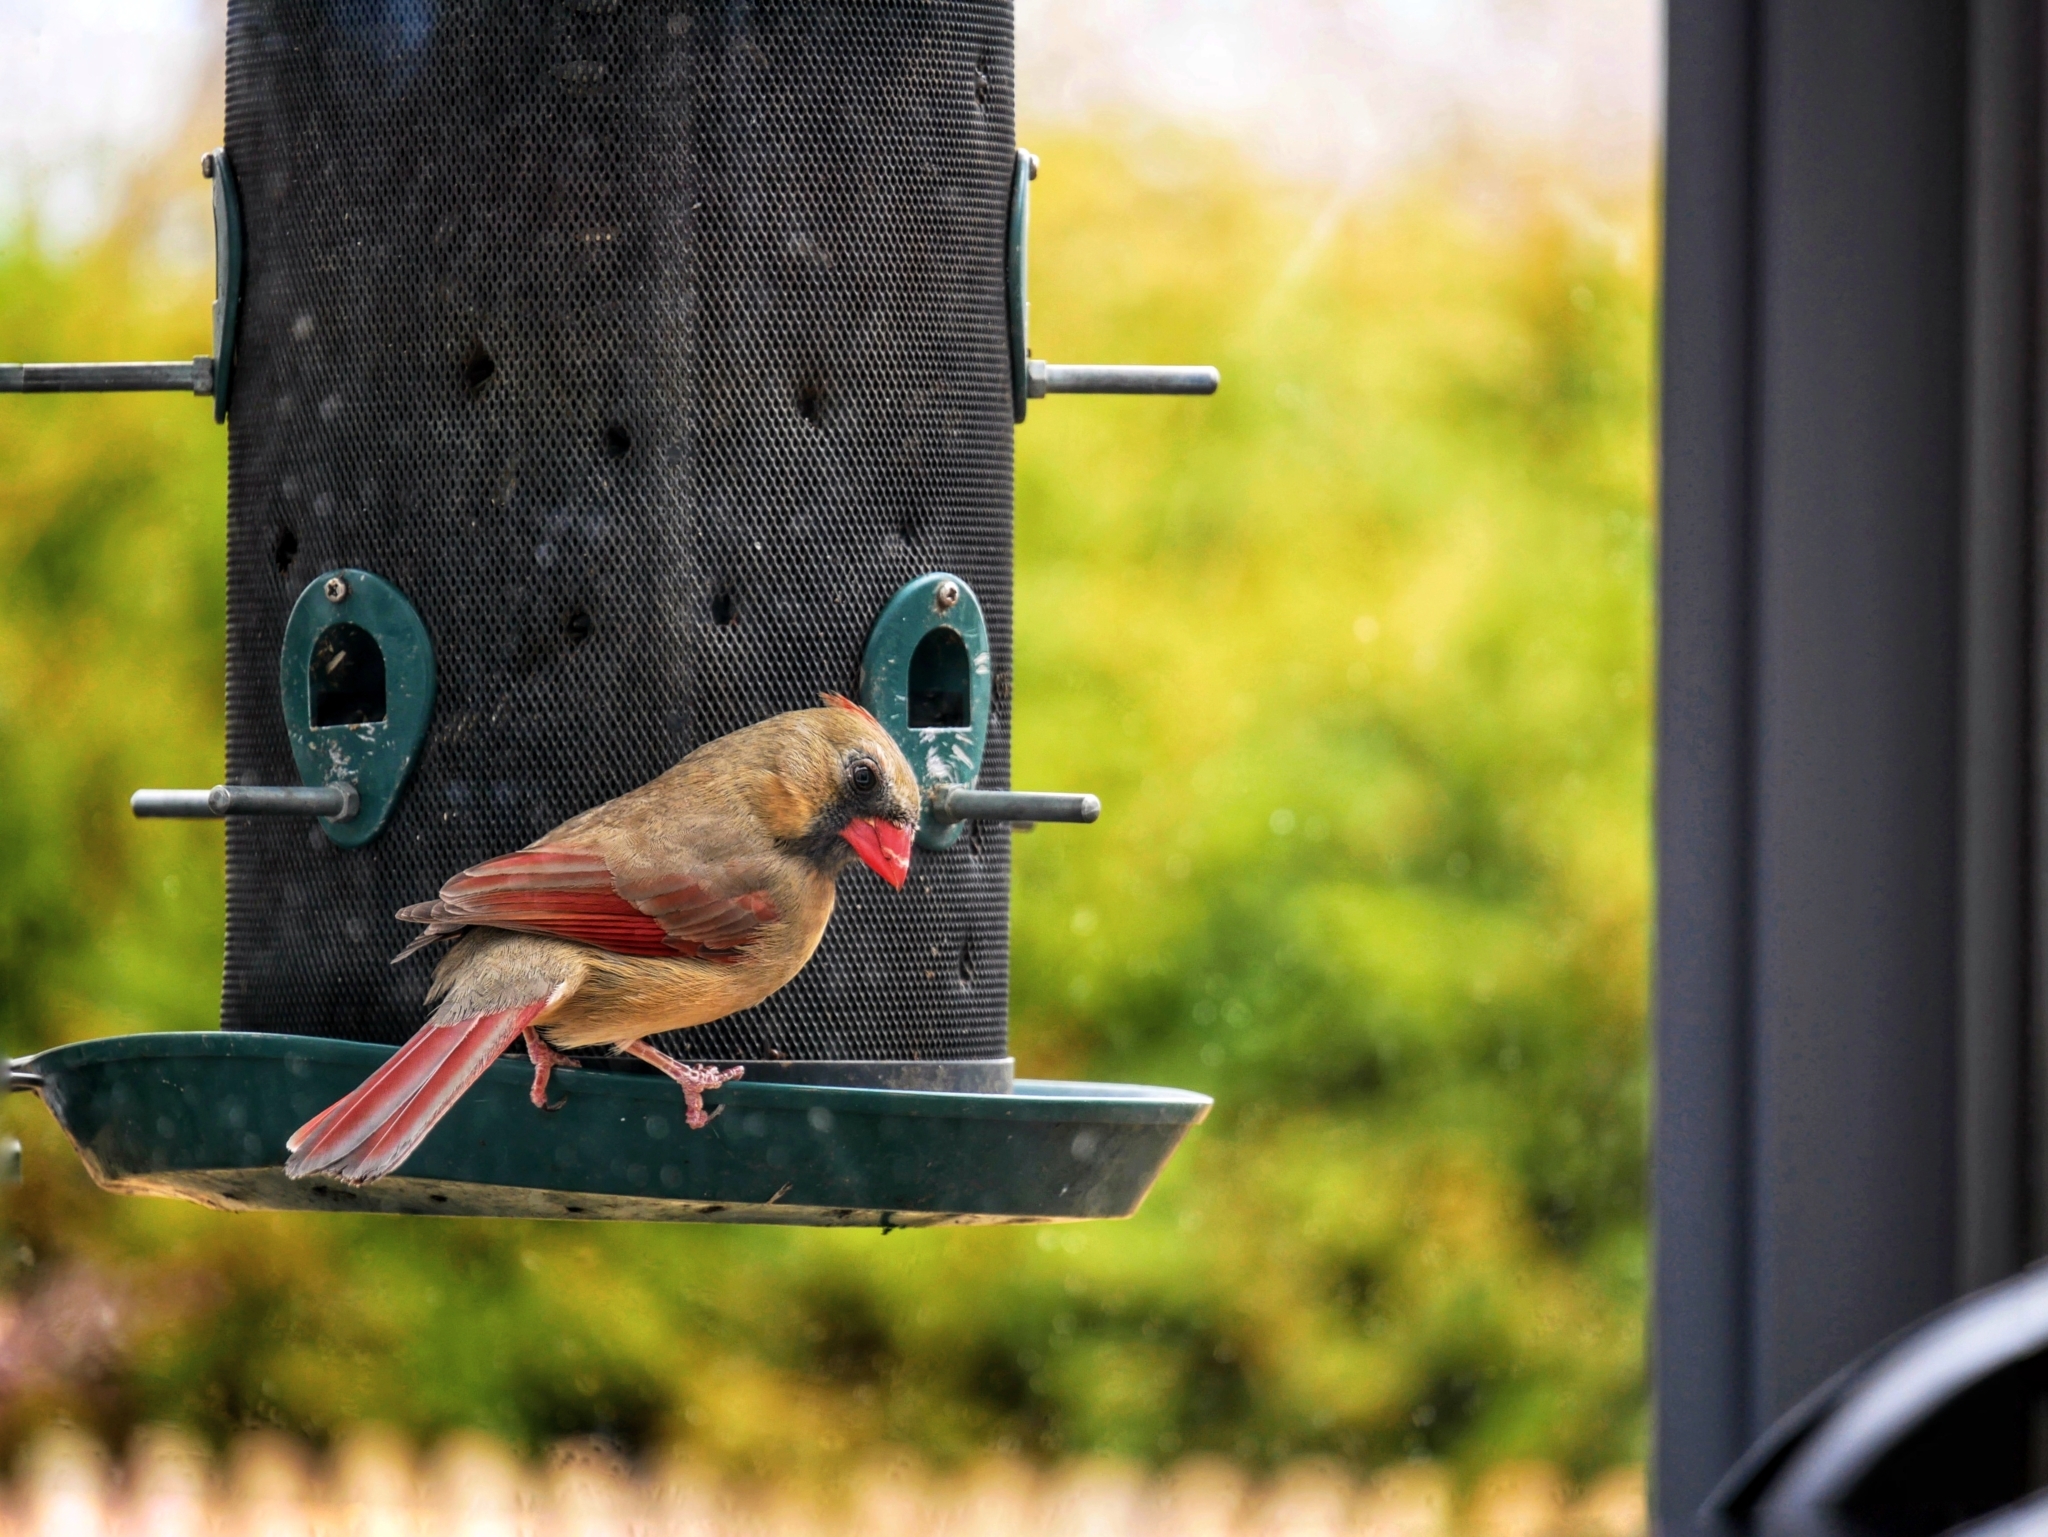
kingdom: Animalia
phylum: Chordata
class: Aves
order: Passeriformes
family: Cardinalidae
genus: Cardinalis
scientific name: Cardinalis cardinalis
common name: Northern cardinal
